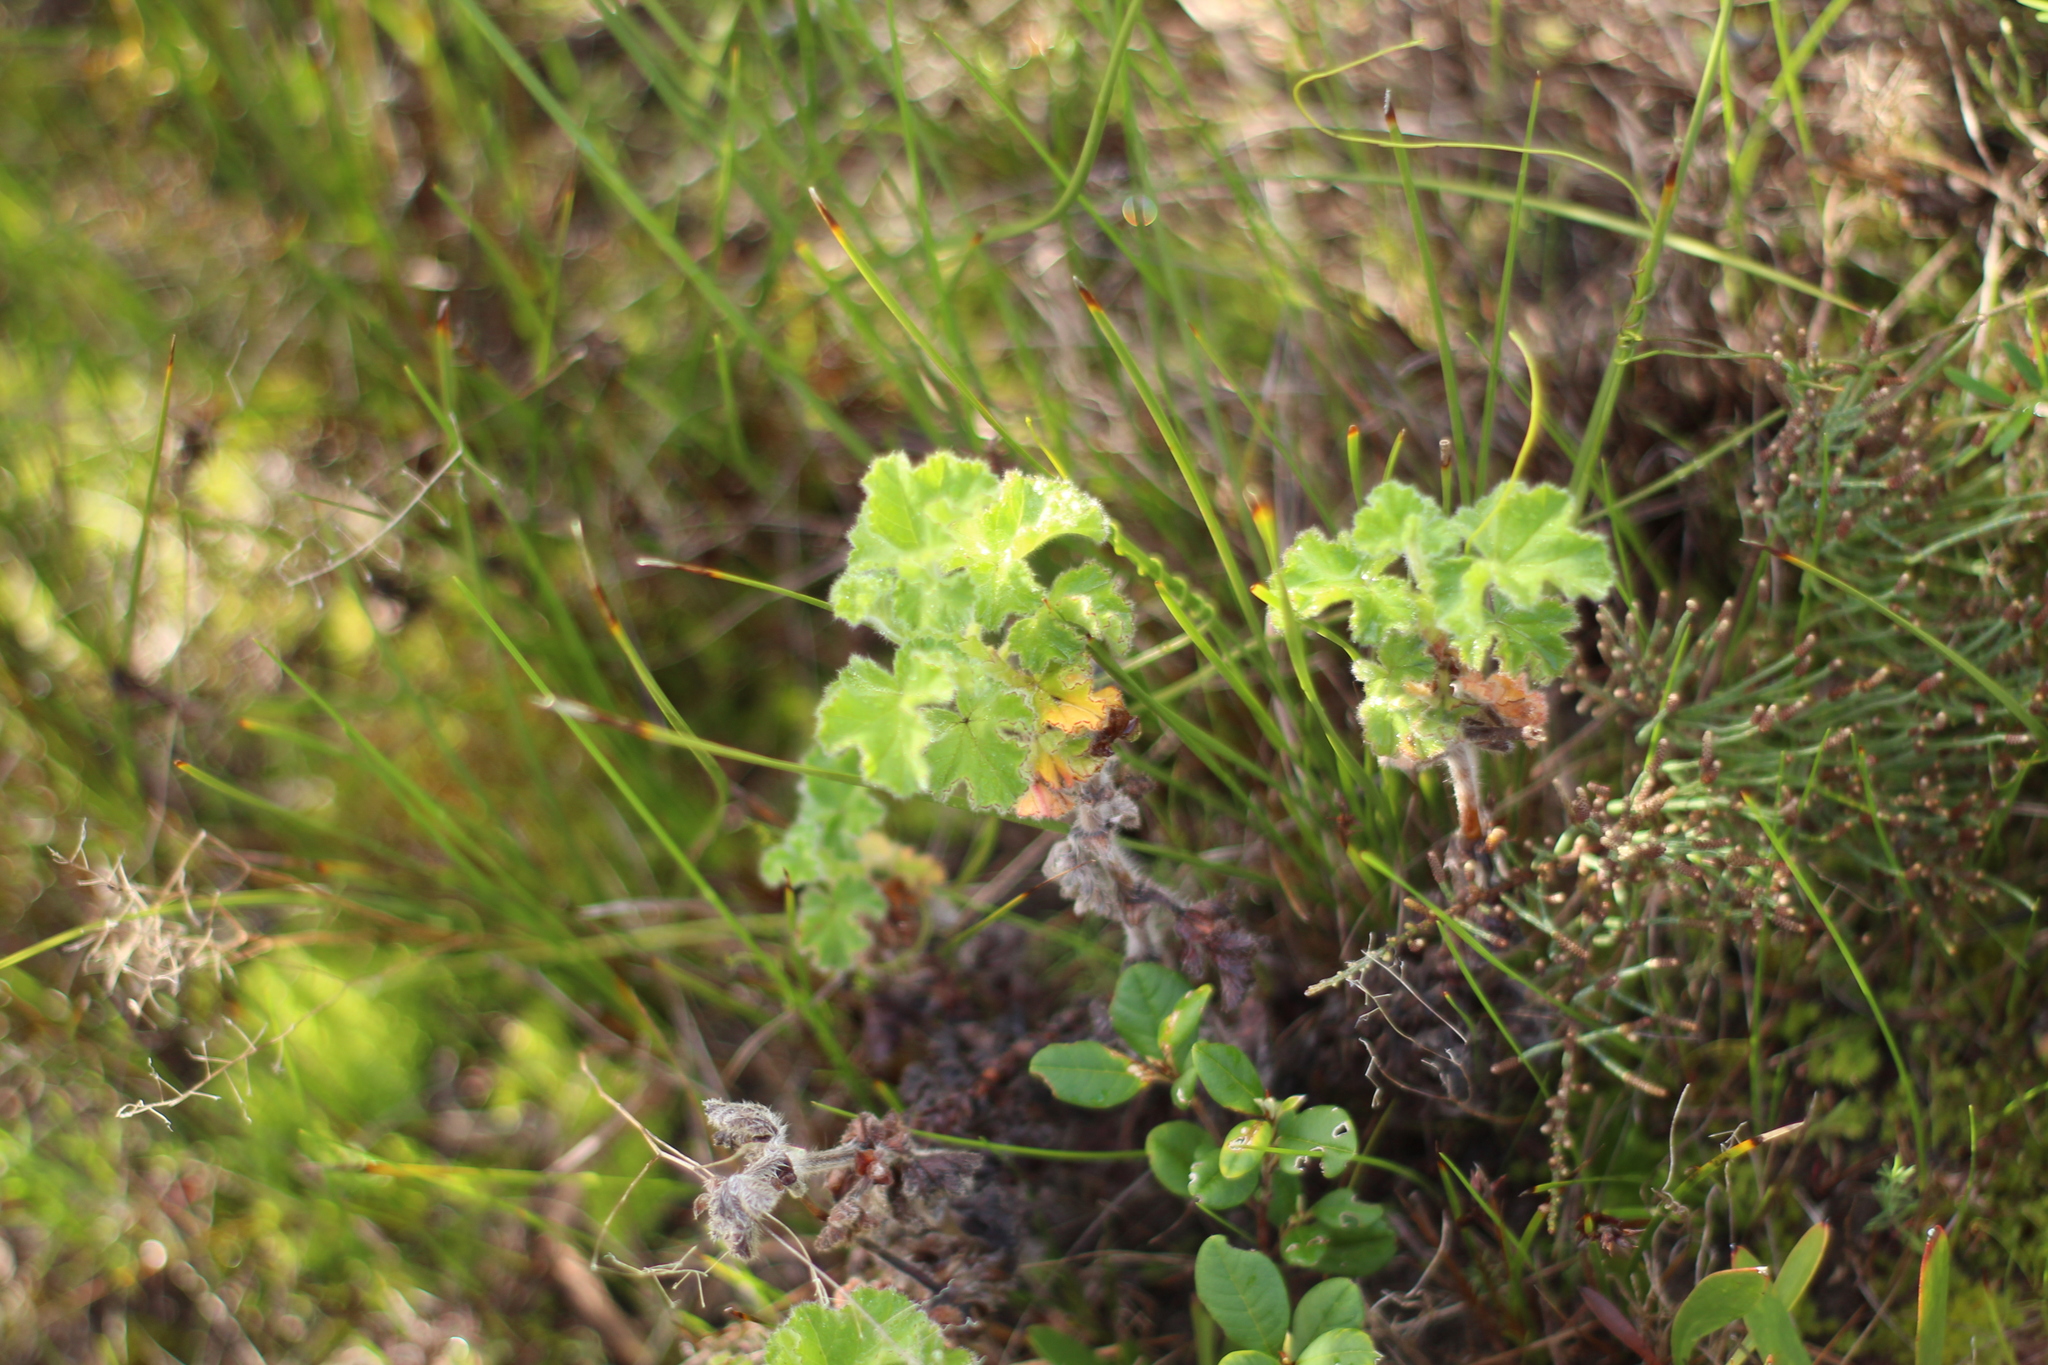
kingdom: Plantae
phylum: Tracheophyta
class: Magnoliopsida
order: Geraniales
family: Geraniaceae
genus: Pelargonium
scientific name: Pelargonium capitatum
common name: Rose scented geranium
